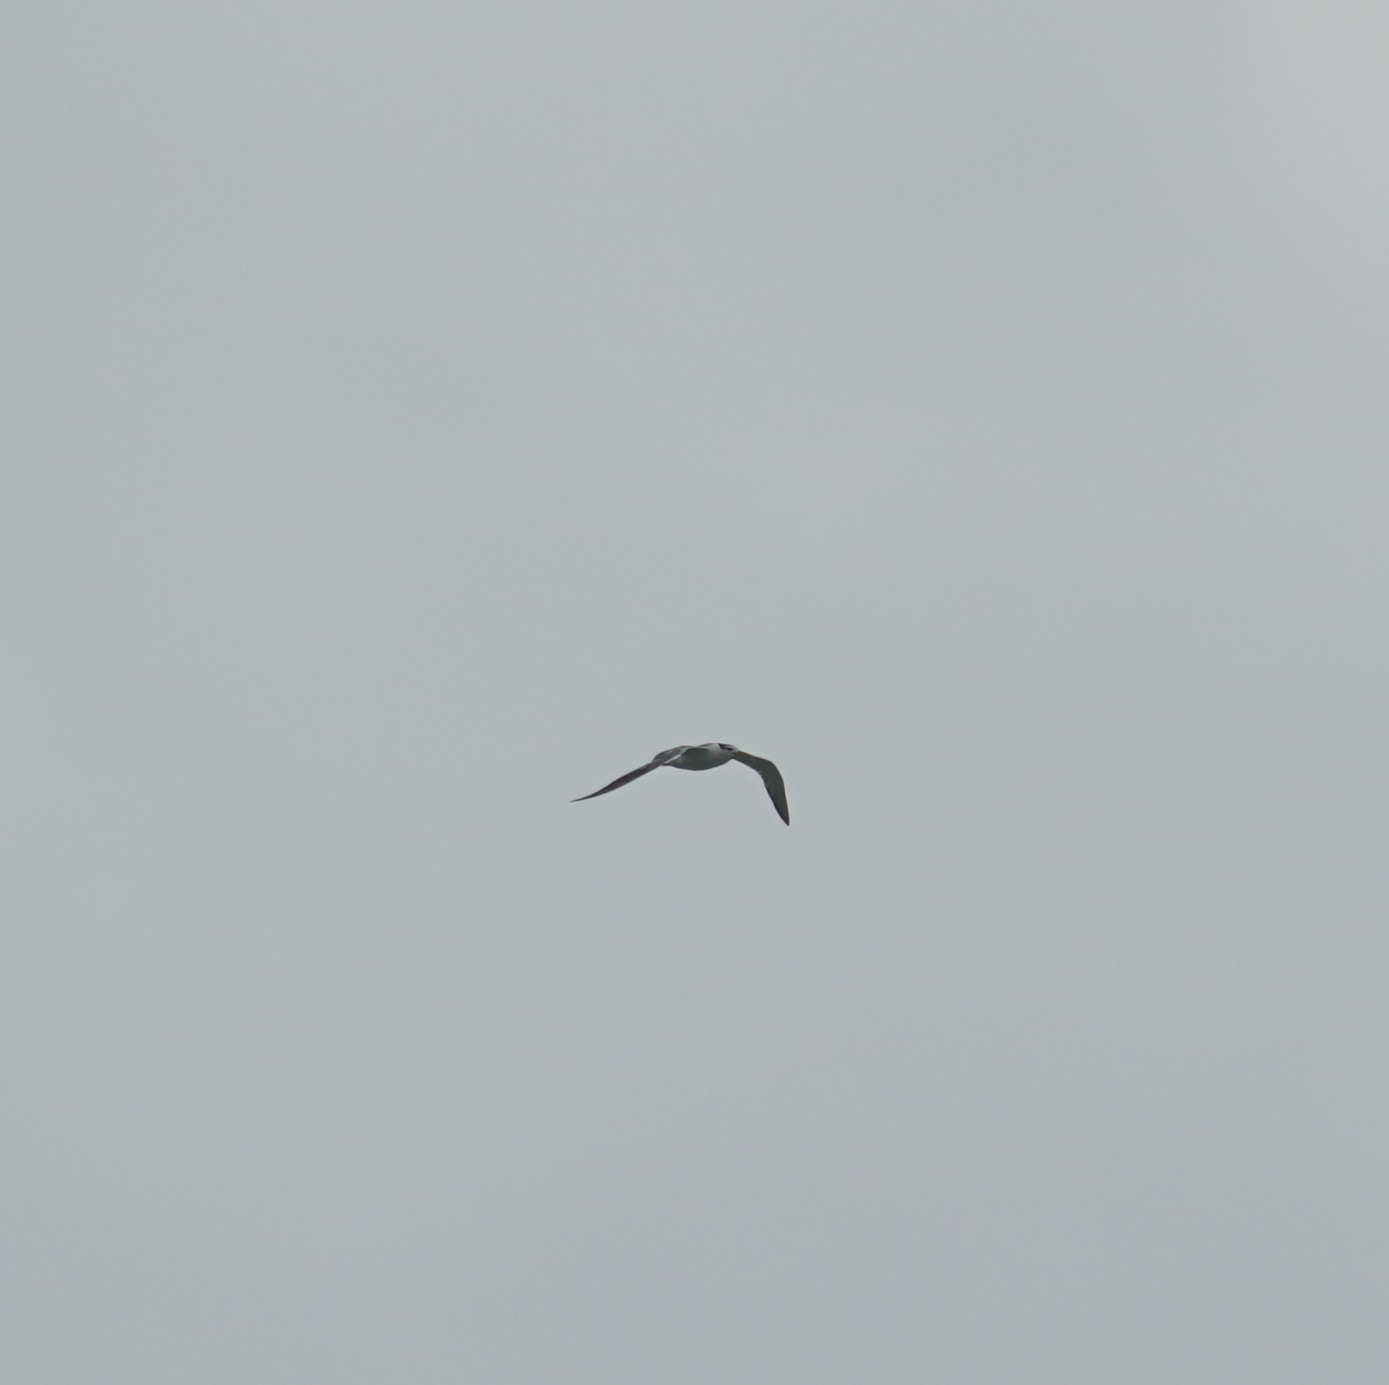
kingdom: Animalia
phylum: Chordata
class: Aves
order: Charadriiformes
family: Laridae
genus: Thalasseus
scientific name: Thalasseus bergii
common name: Greater crested tern
